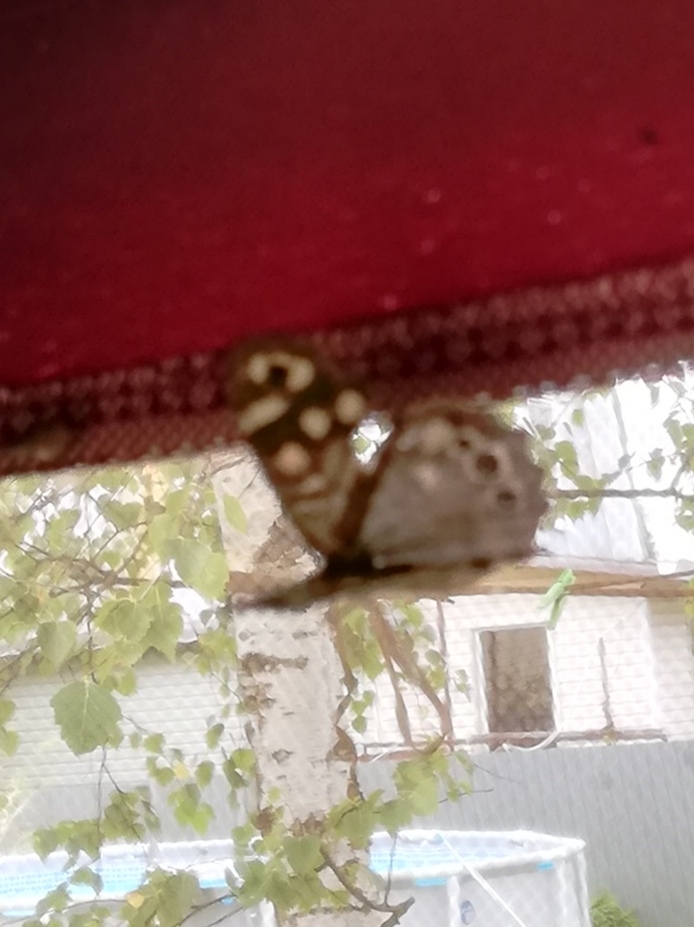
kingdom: Animalia
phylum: Arthropoda
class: Insecta
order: Lepidoptera
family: Nymphalidae
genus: Pararge
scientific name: Pararge aegeria
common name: Speckled wood
